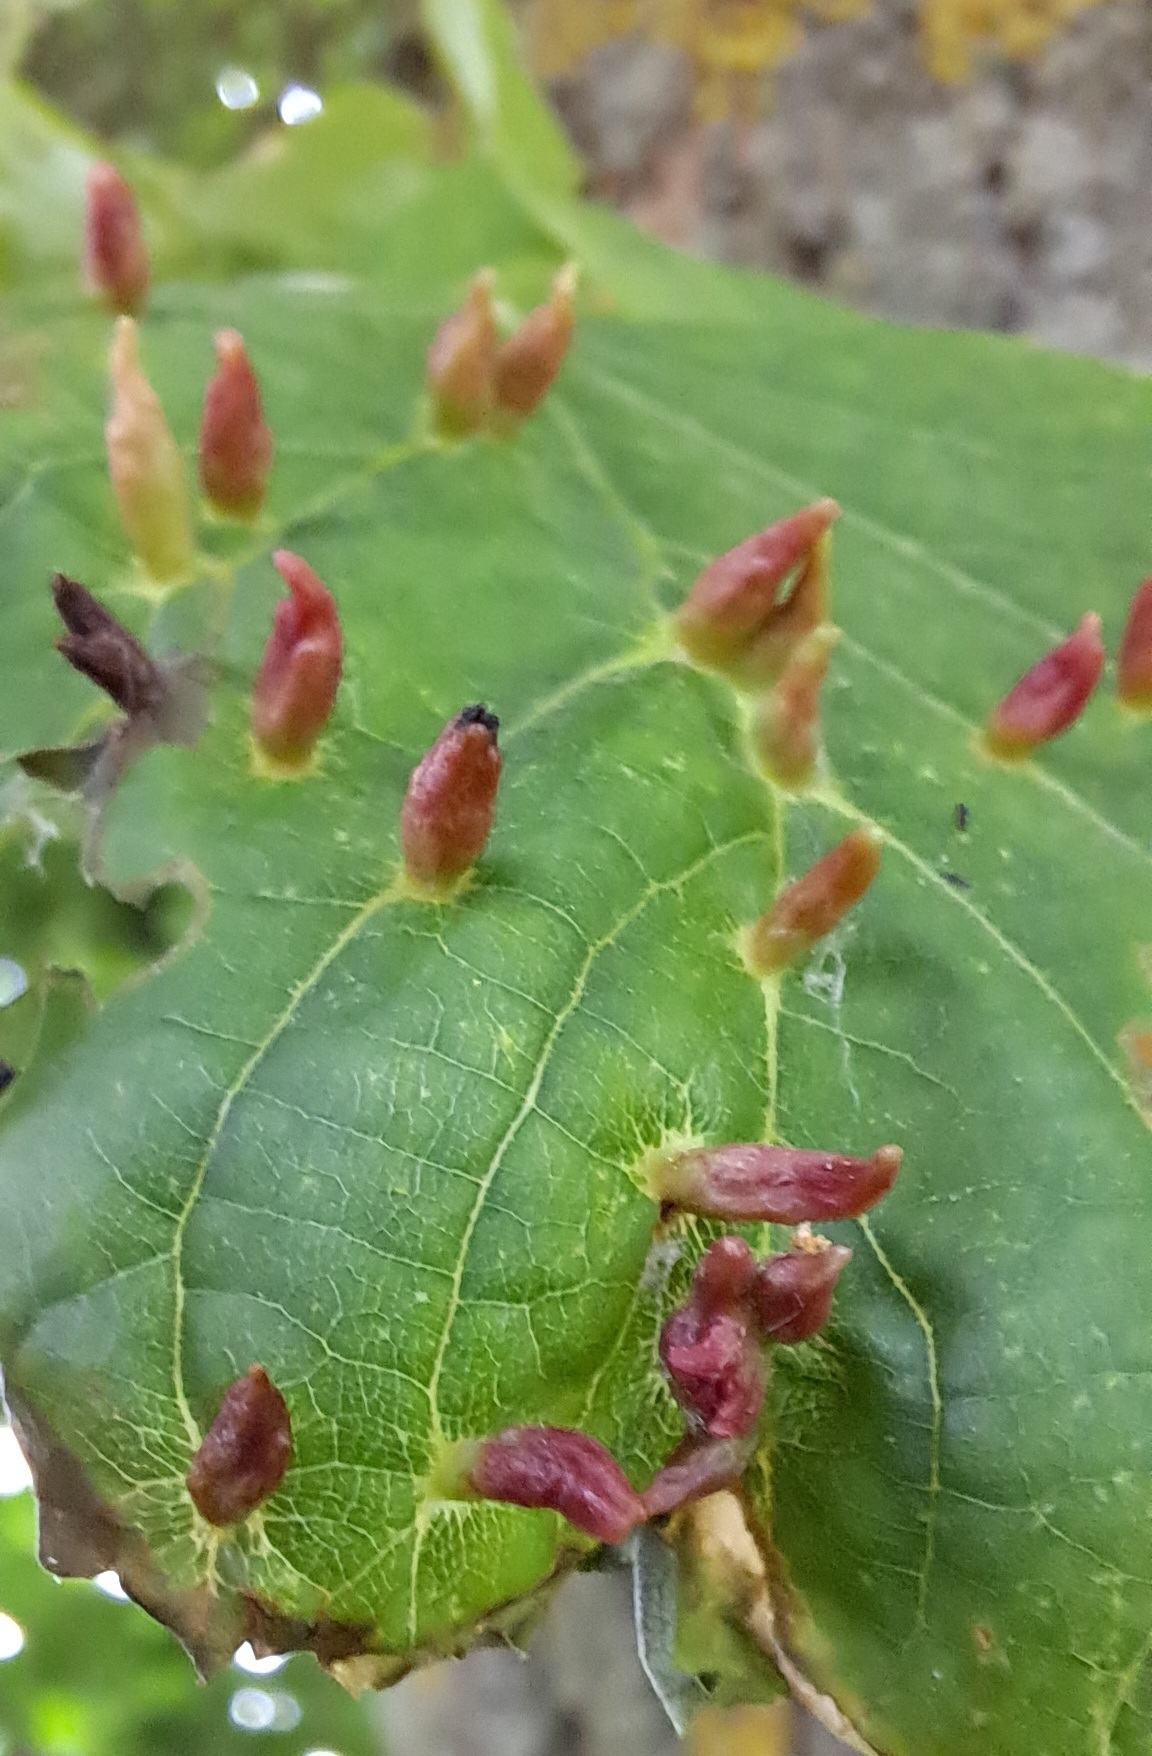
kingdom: Animalia
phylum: Arthropoda
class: Arachnida
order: Trombidiformes
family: Eriophyidae
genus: Eriophyes
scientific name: Eriophyes tiliae
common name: Red nail gall mite
